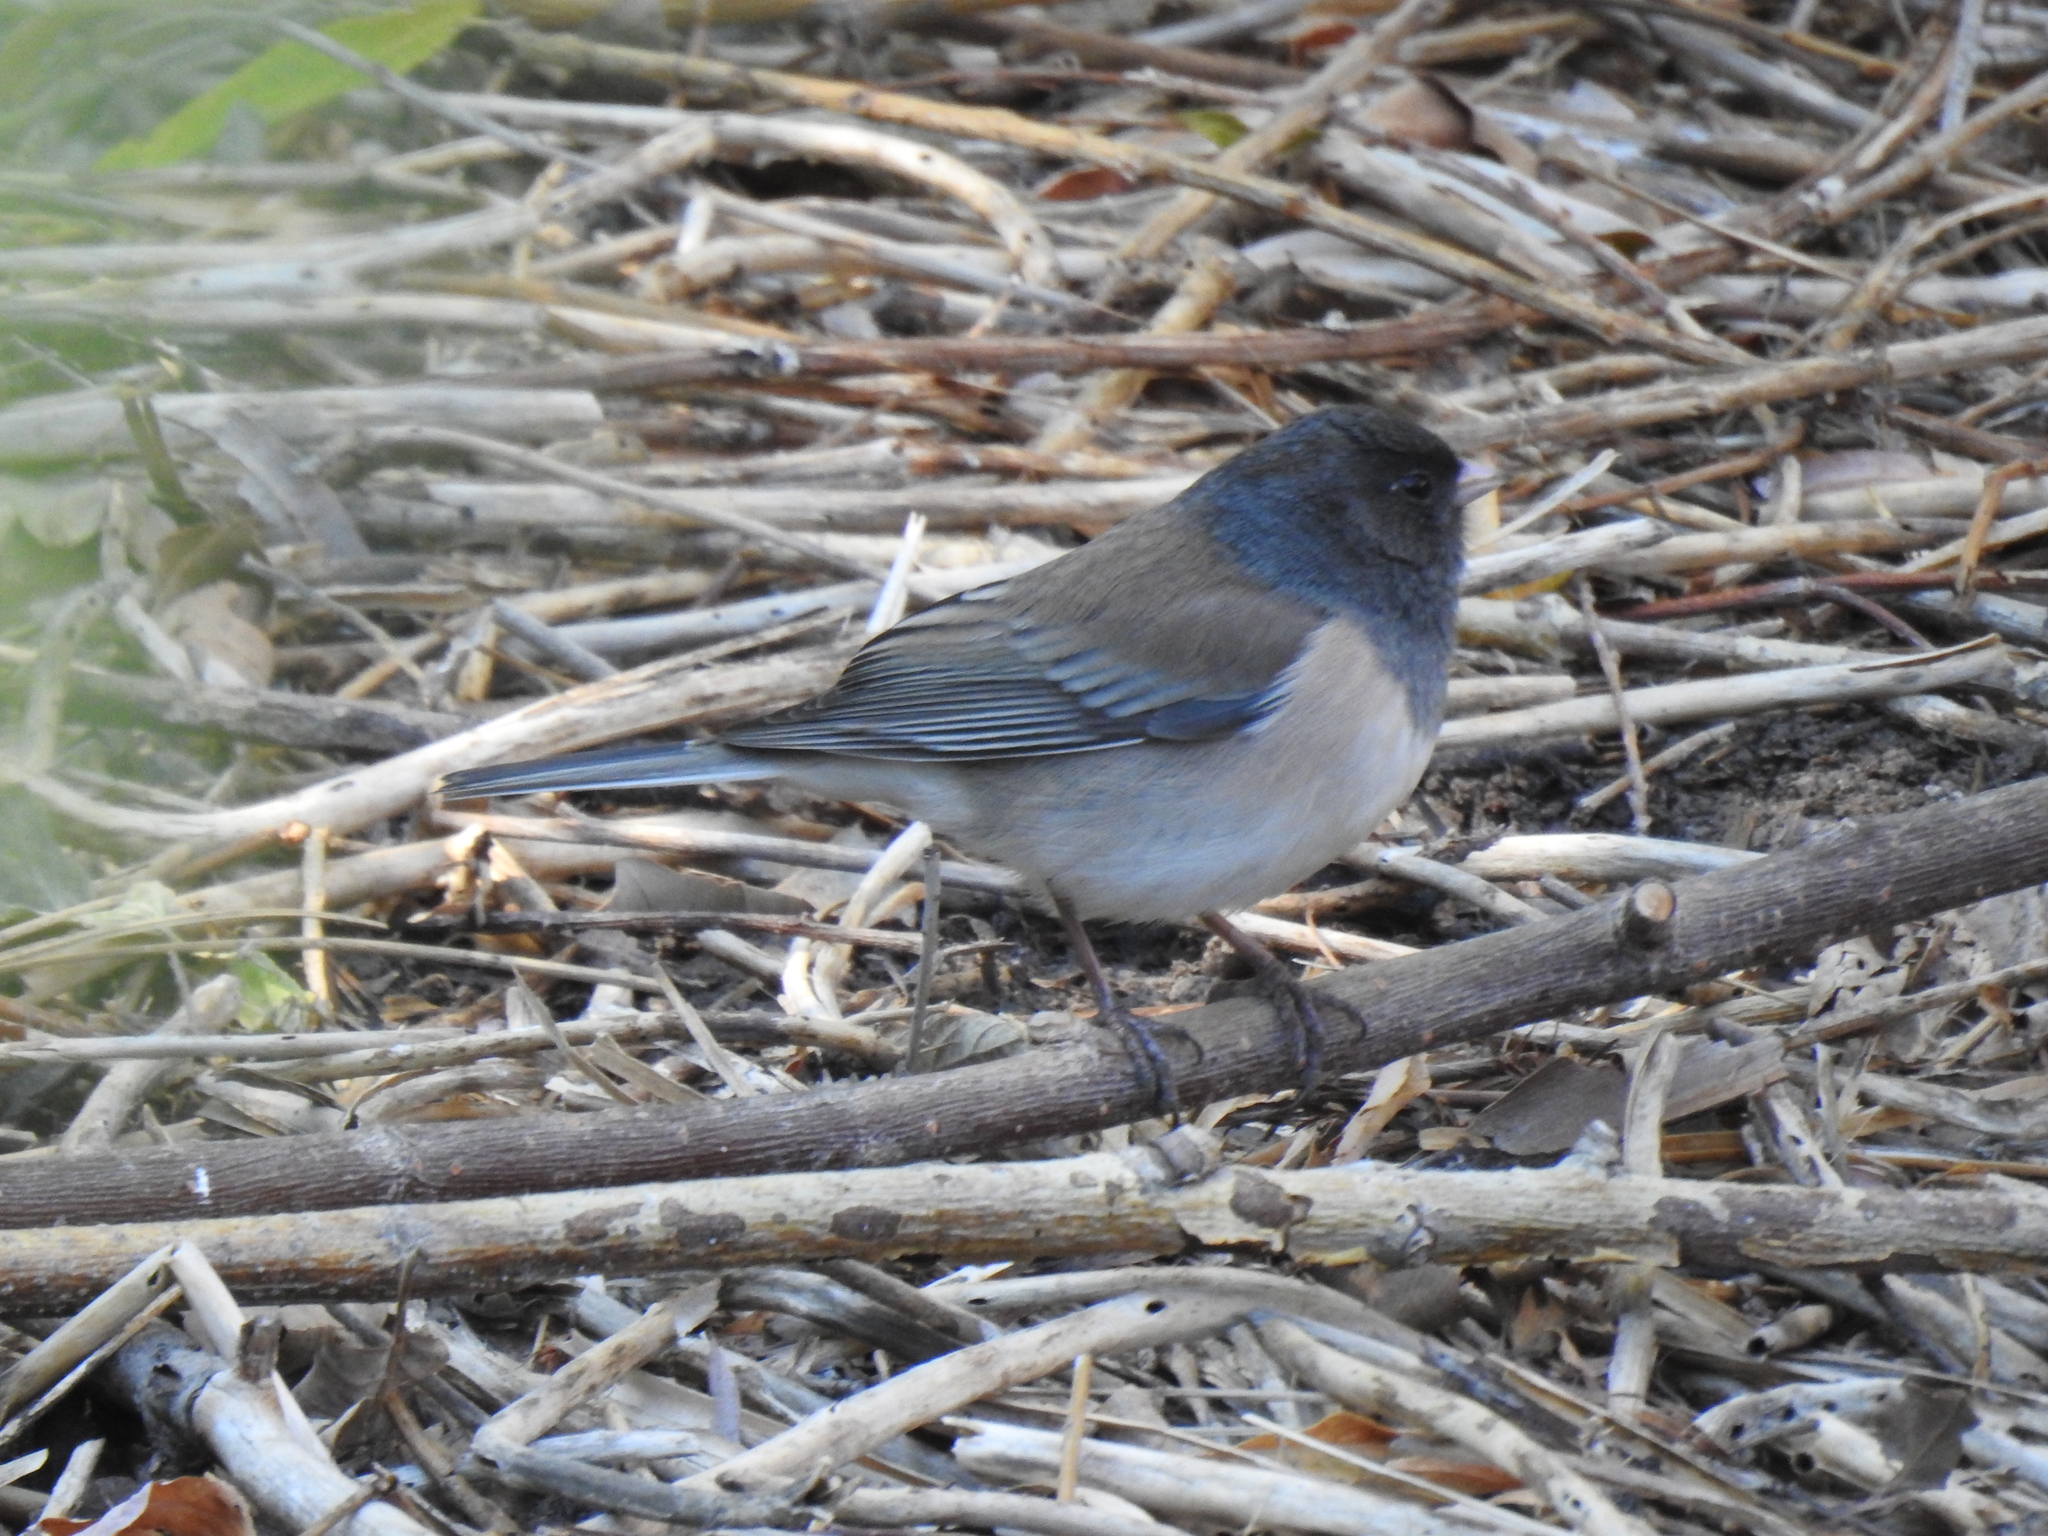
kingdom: Animalia
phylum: Chordata
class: Aves
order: Passeriformes
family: Passerellidae
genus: Junco
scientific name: Junco hyemalis
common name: Dark-eyed junco
